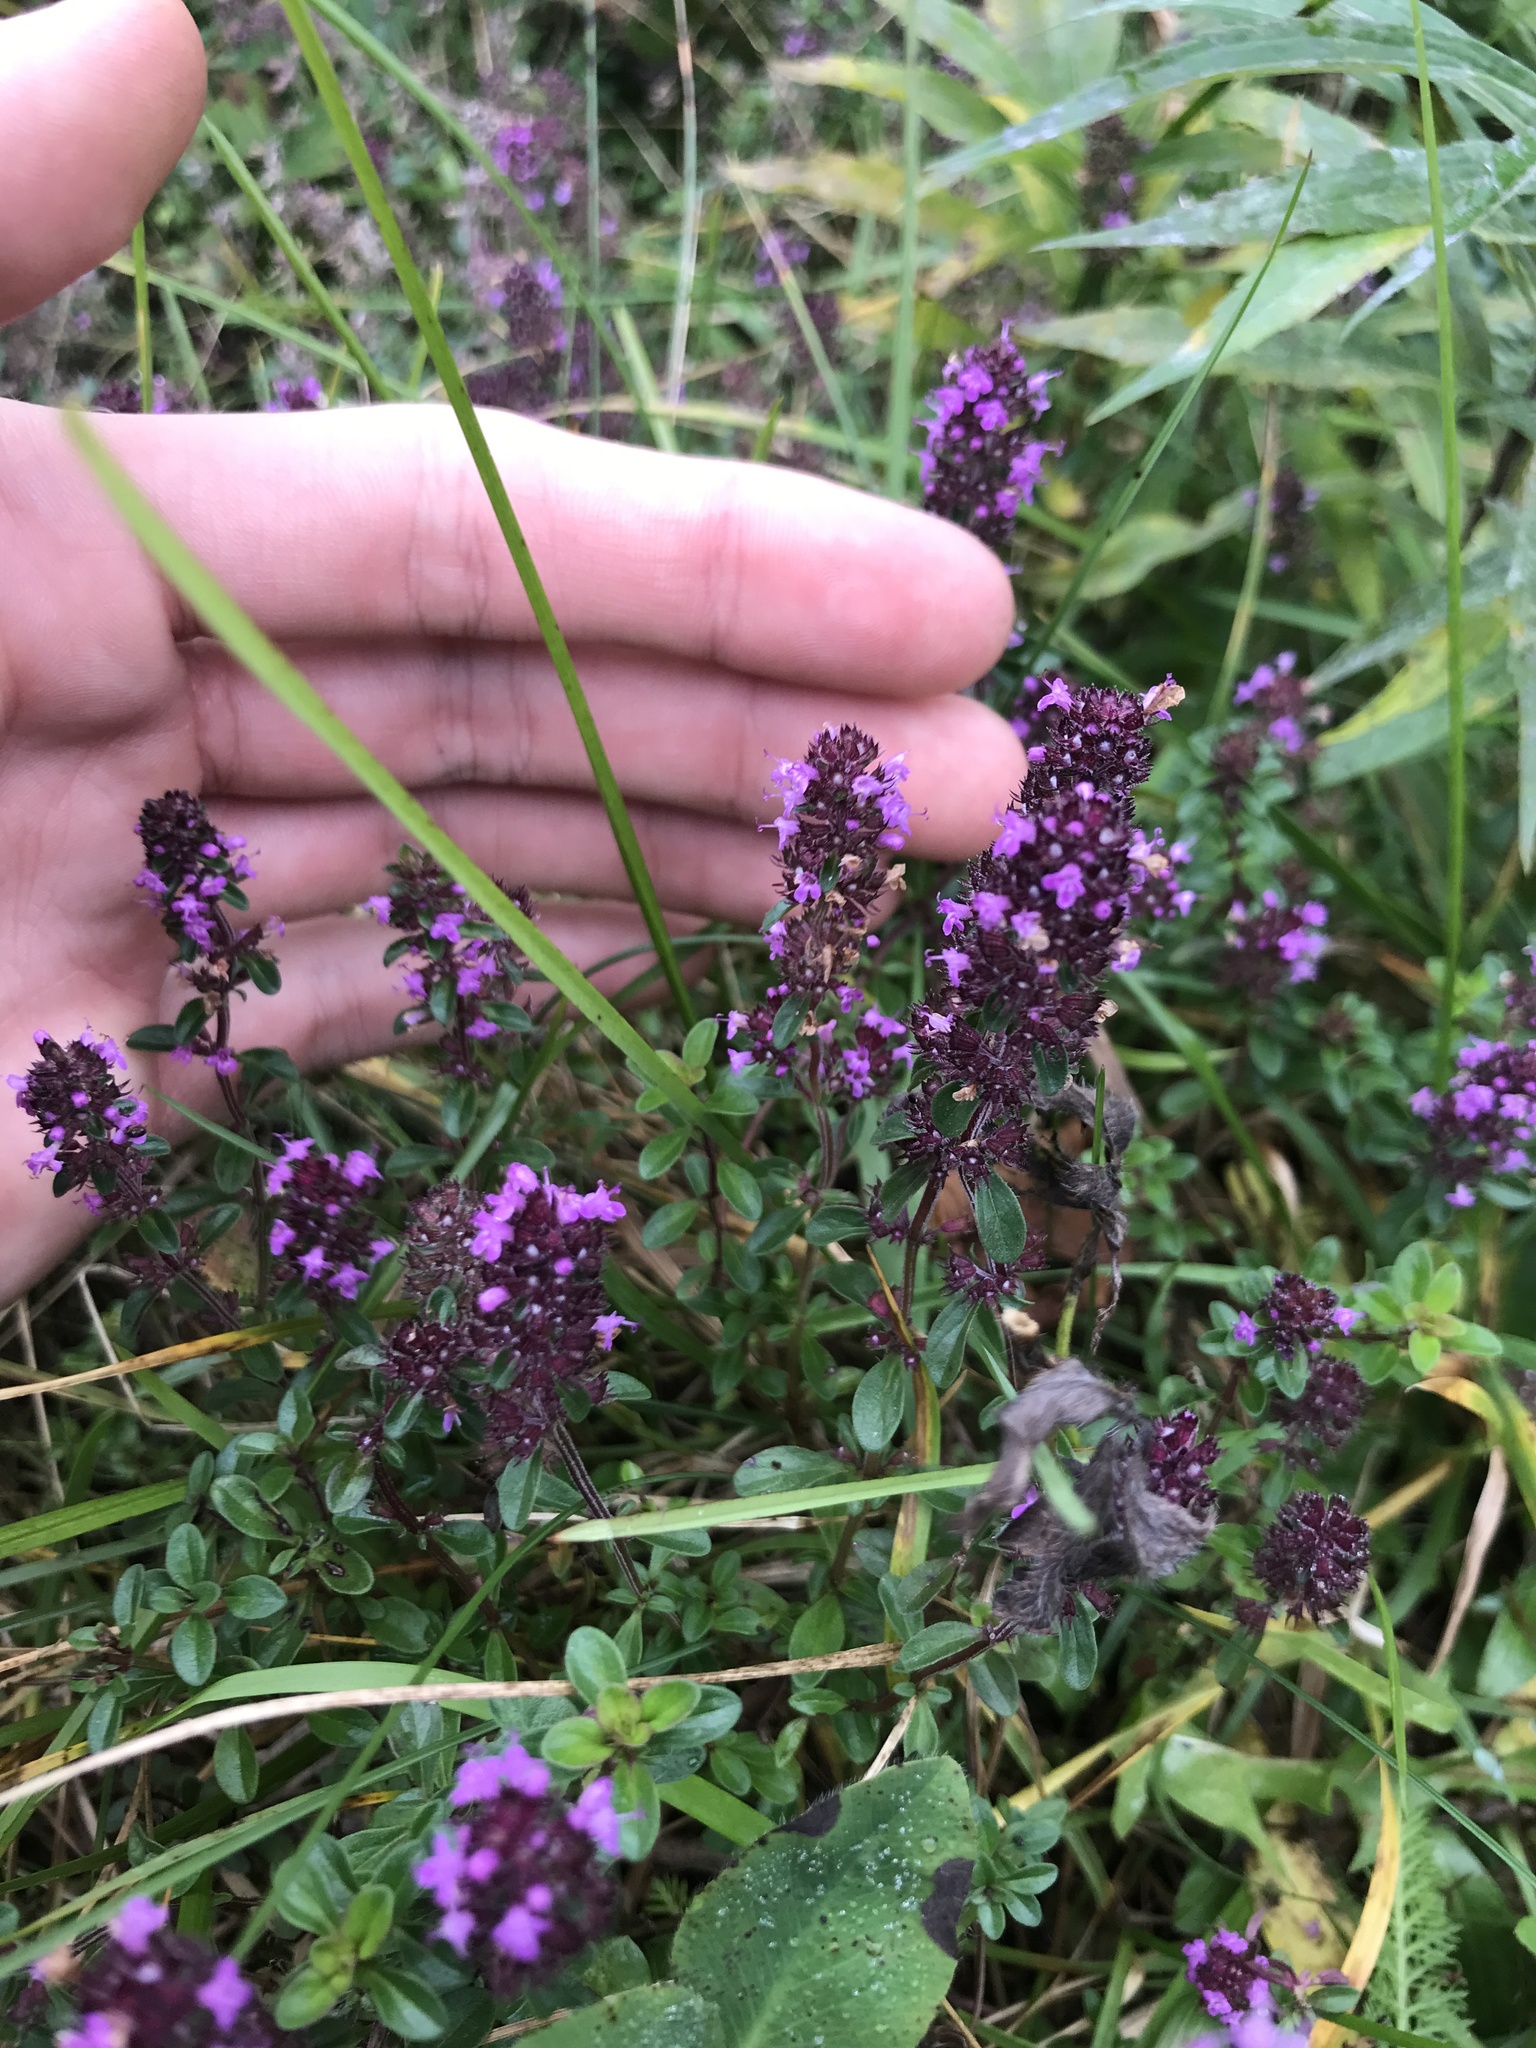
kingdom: Plantae
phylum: Tracheophyta
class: Magnoliopsida
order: Lamiales
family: Lamiaceae
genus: Thymus
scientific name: Thymus pulegioides
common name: Large thyme
